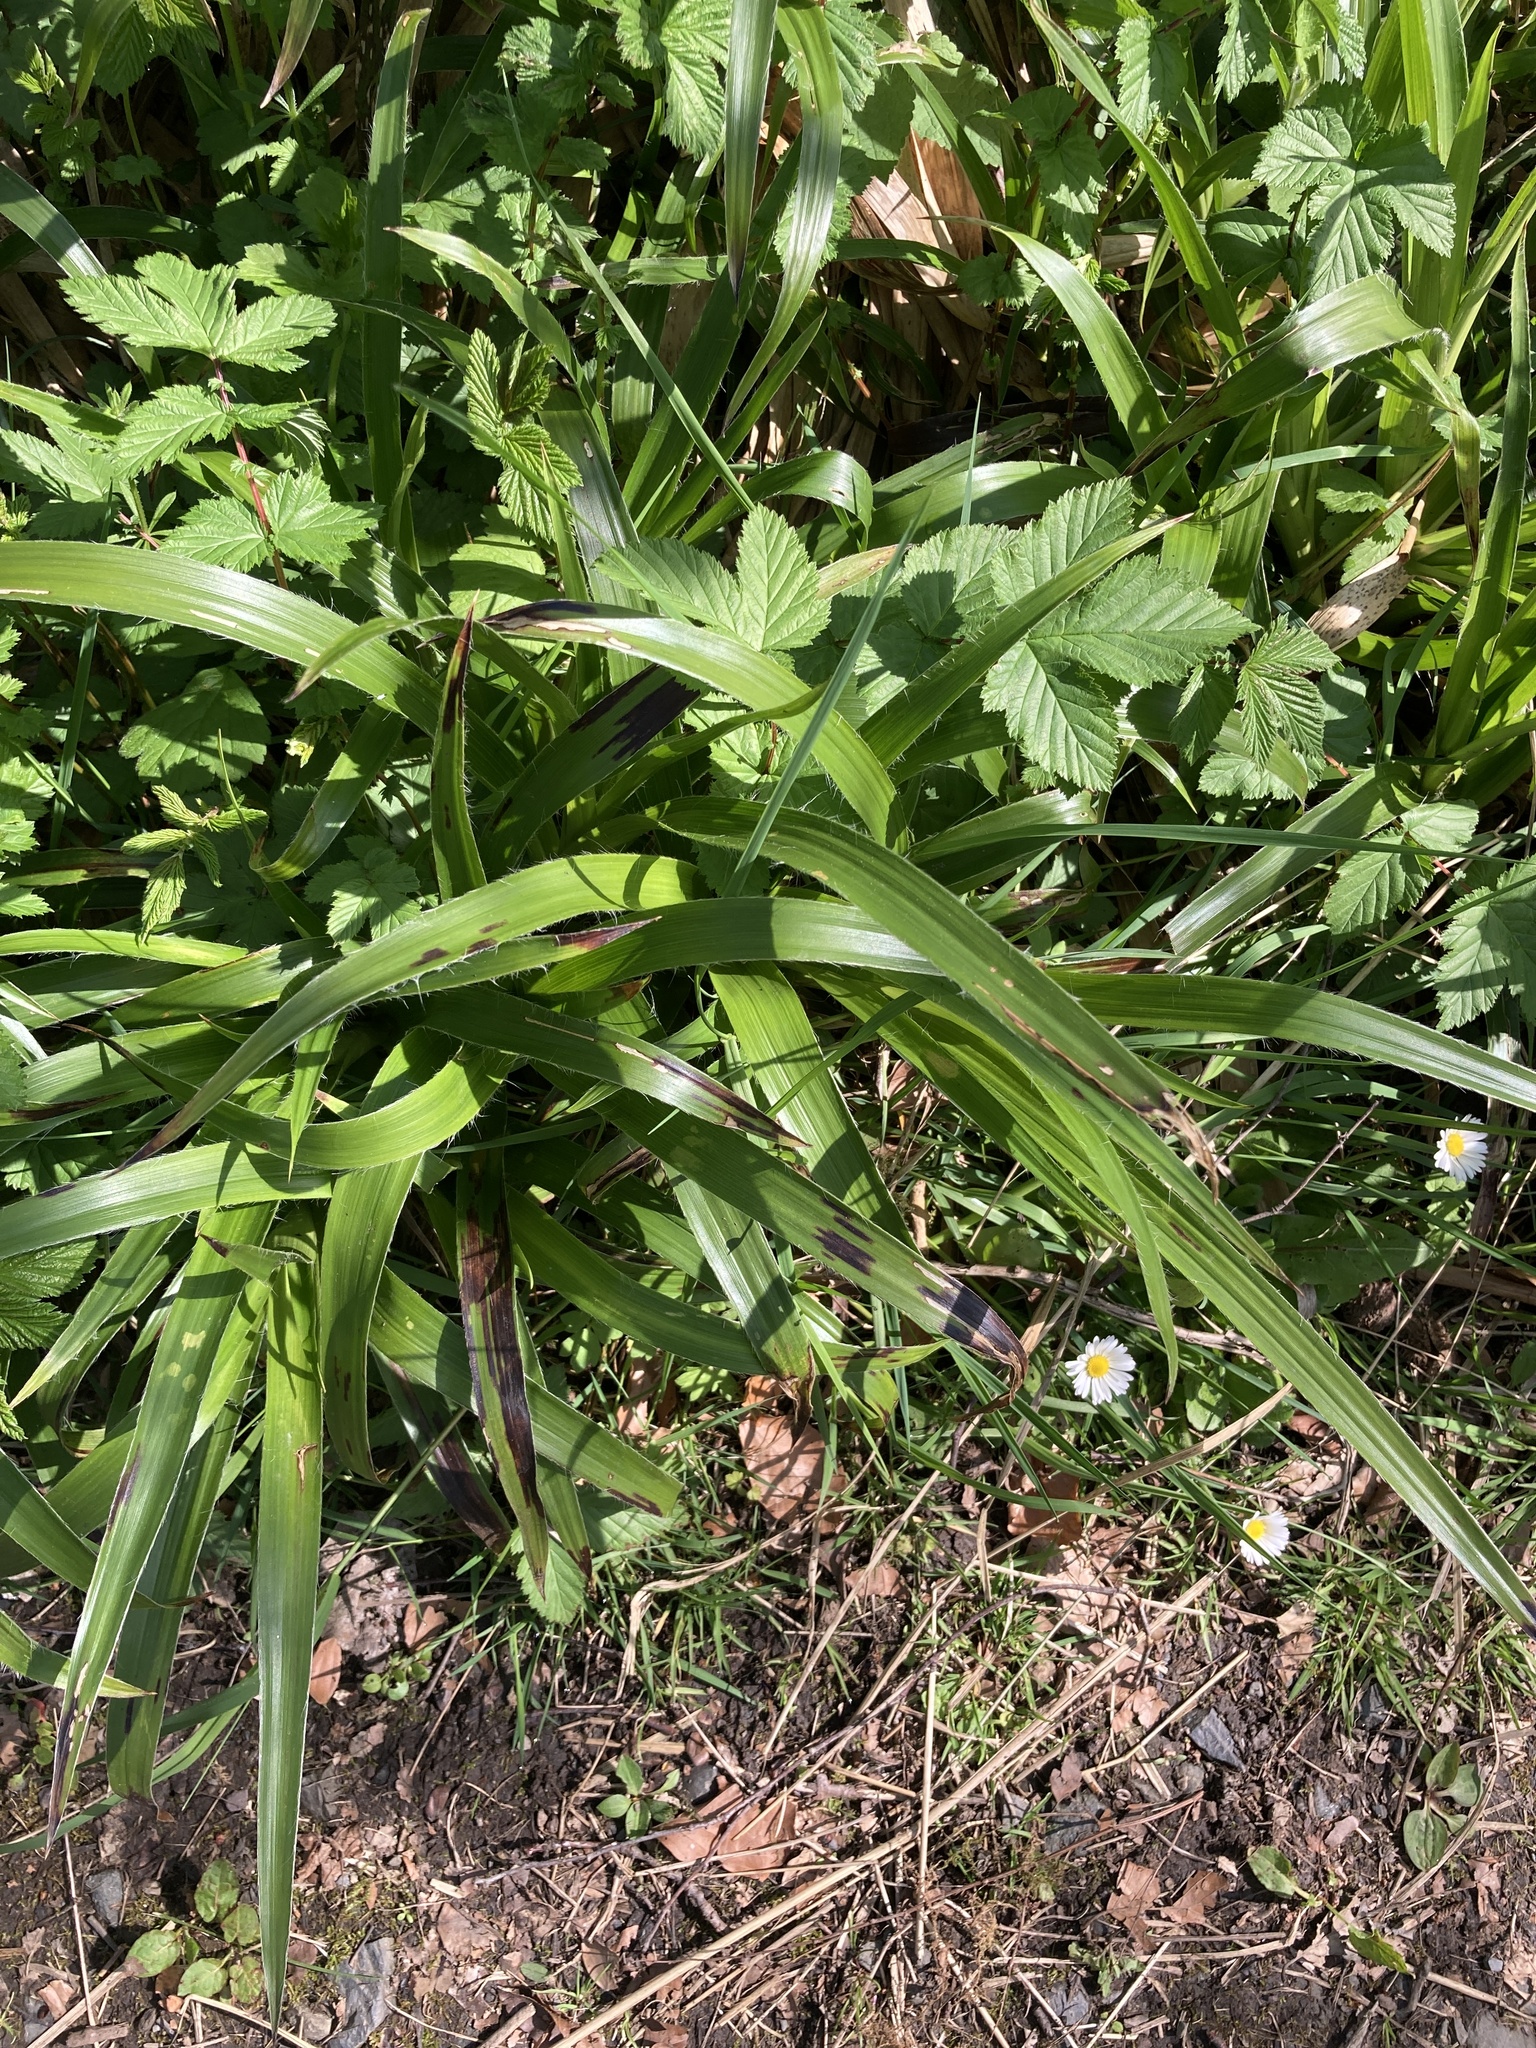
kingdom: Plantae
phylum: Tracheophyta
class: Liliopsida
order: Poales
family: Juncaceae
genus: Luzula
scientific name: Luzula sylvatica
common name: Great wood-rush
